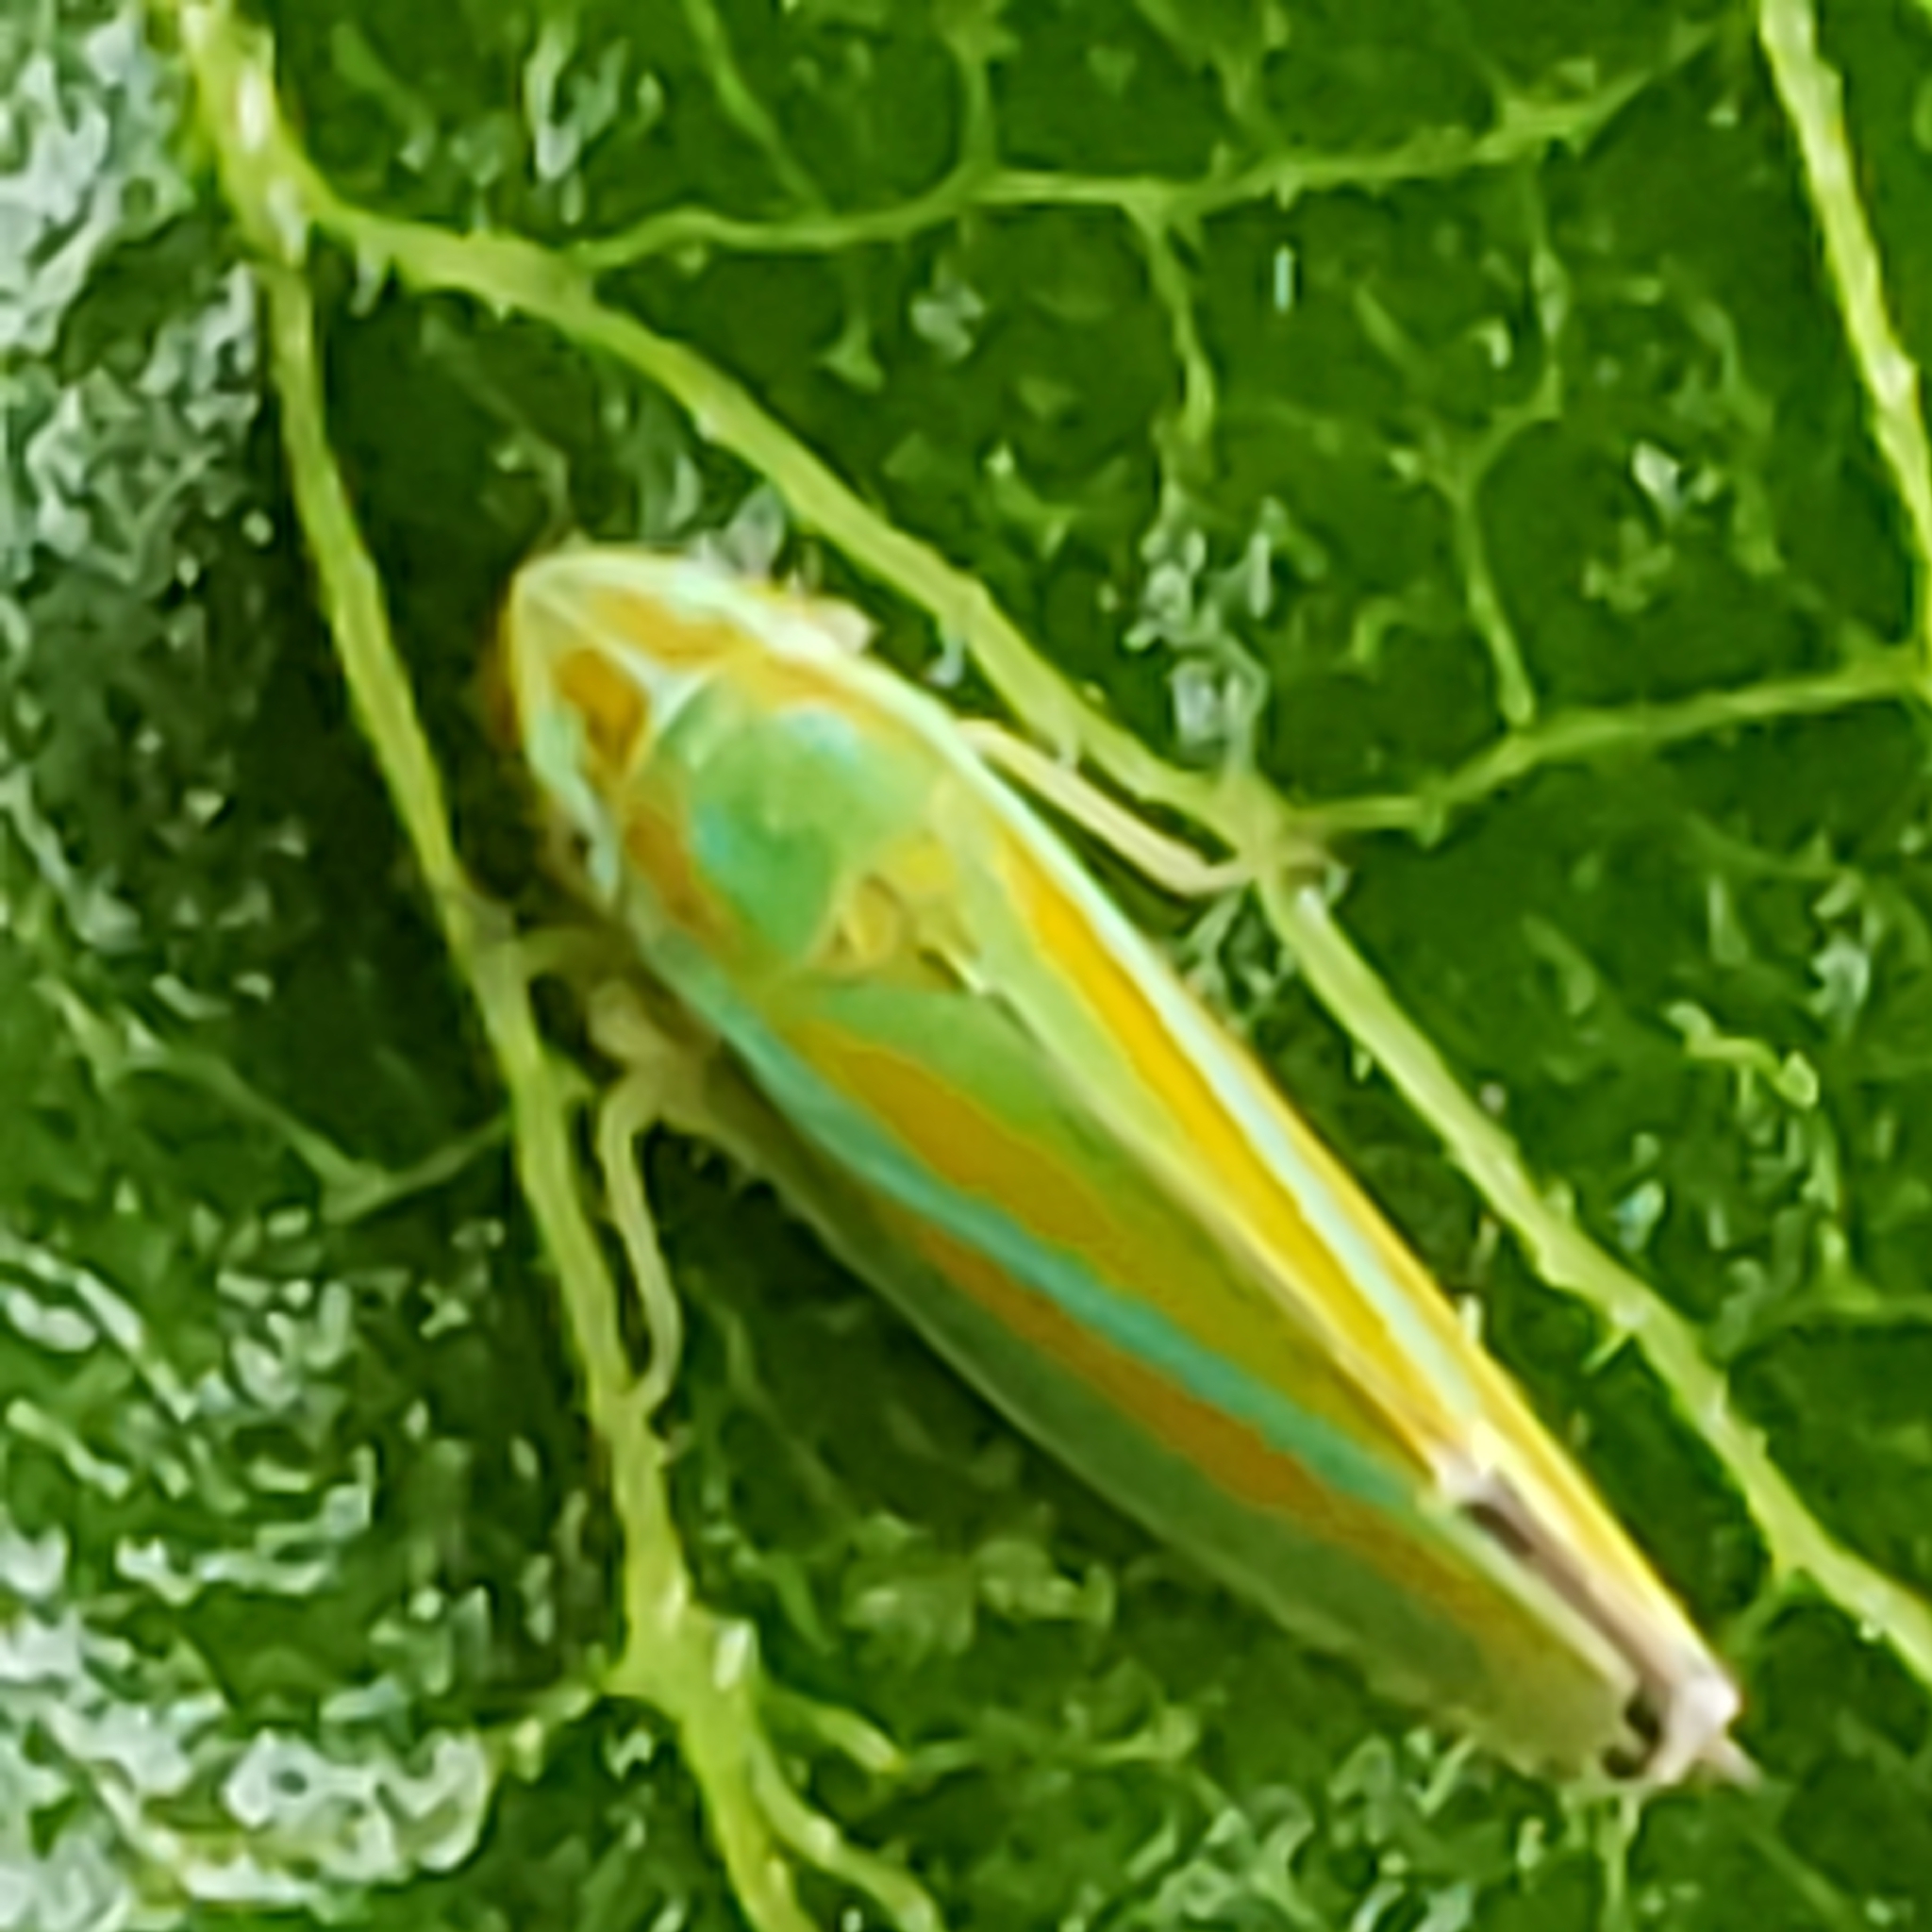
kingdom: Animalia
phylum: Arthropoda
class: Insecta
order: Hemiptera
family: Cicadellidae
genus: Graphocephala
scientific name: Graphocephala versuta
